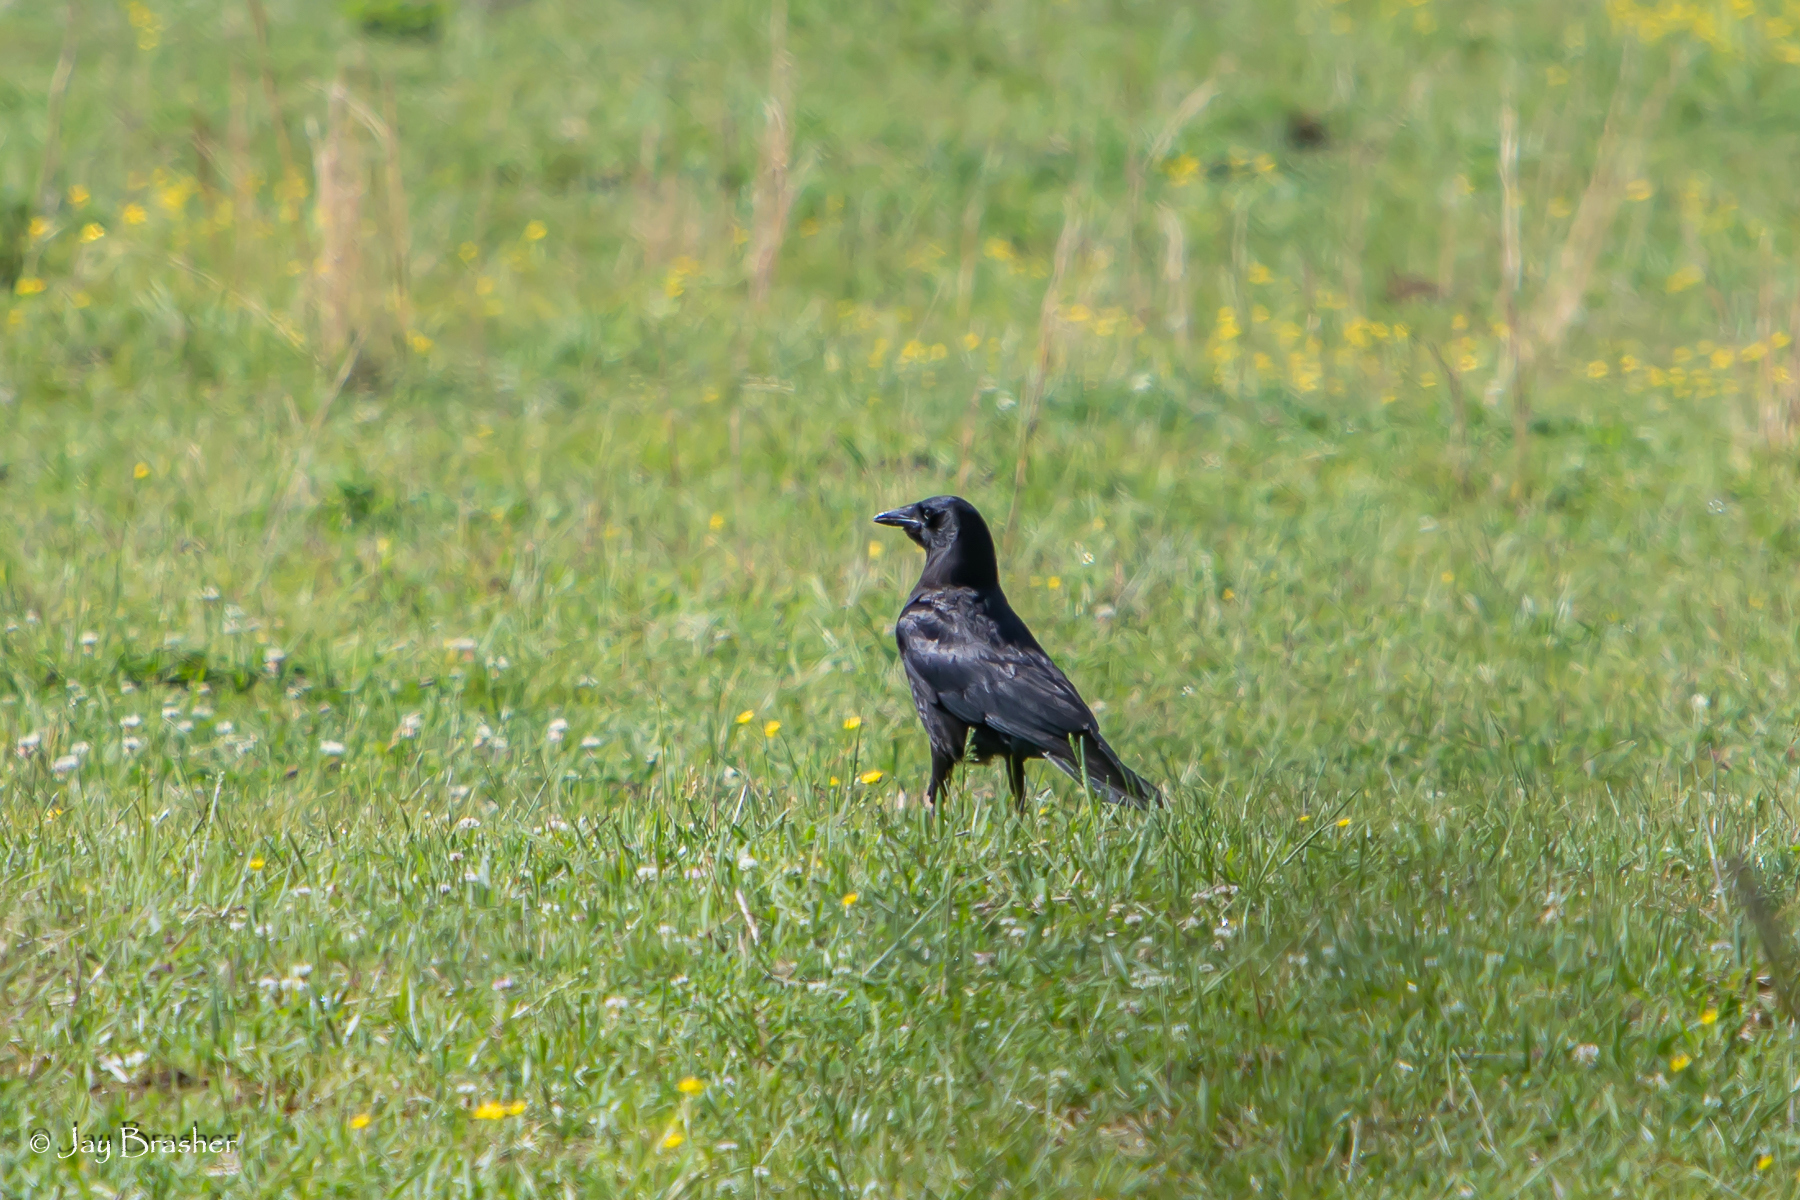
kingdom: Animalia
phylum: Chordata
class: Aves
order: Passeriformes
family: Corvidae
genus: Corvus
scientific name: Corvus brachyrhynchos
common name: American crow
